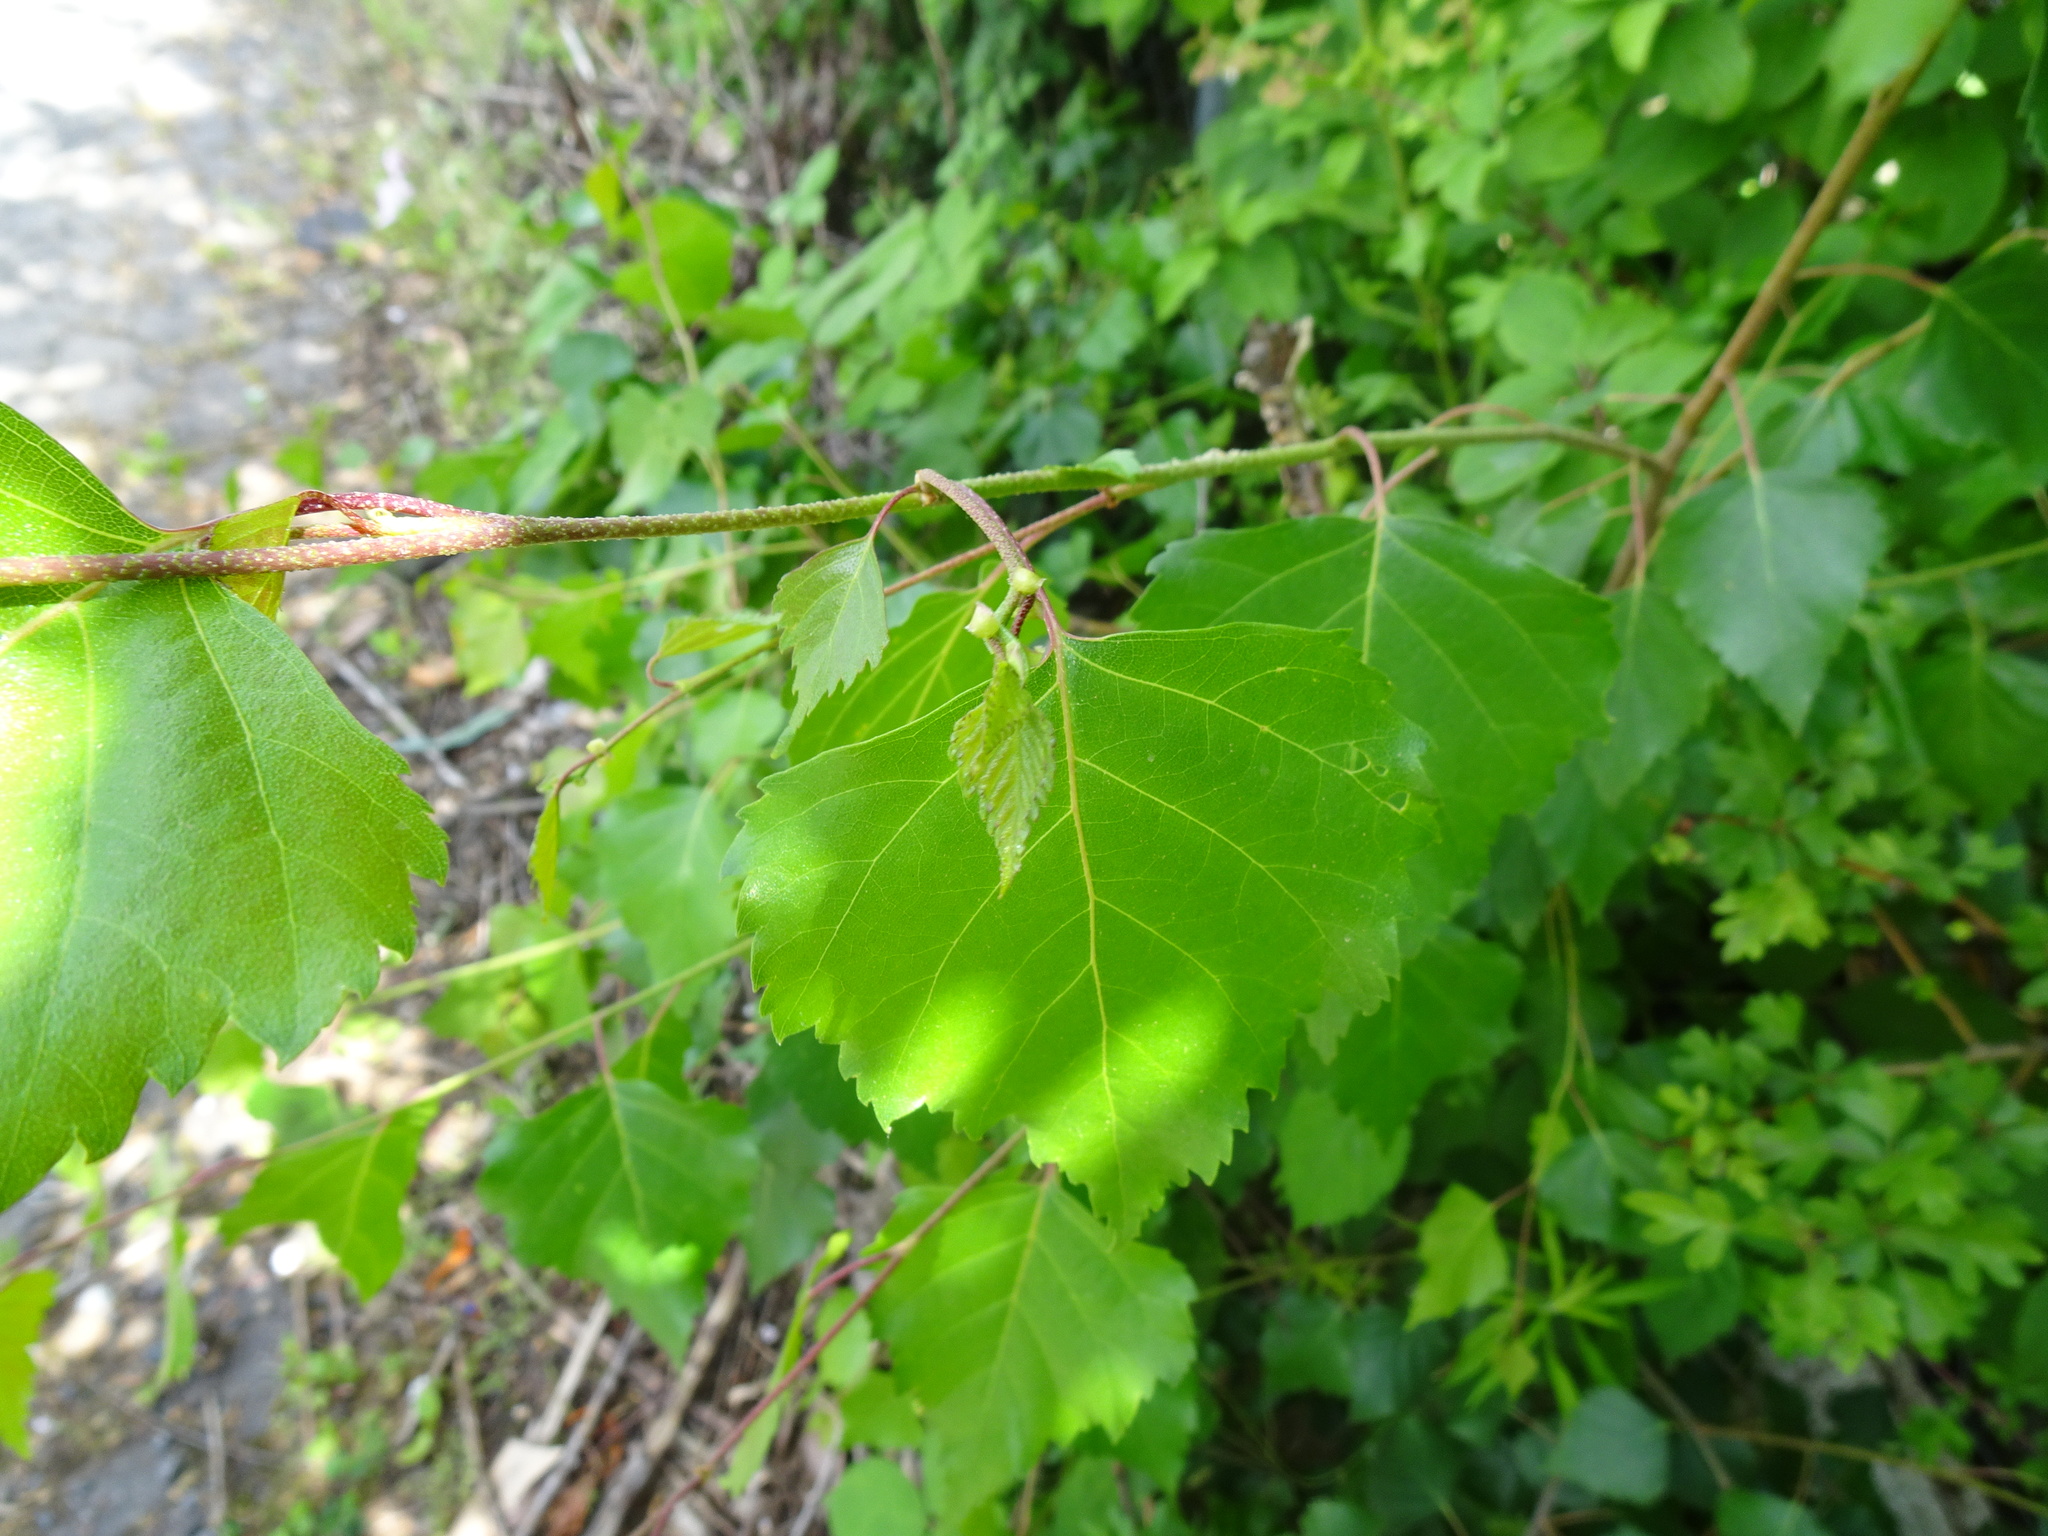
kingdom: Plantae
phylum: Tracheophyta
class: Magnoliopsida
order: Fagales
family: Betulaceae
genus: Betula
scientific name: Betula pendula
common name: Silver birch
